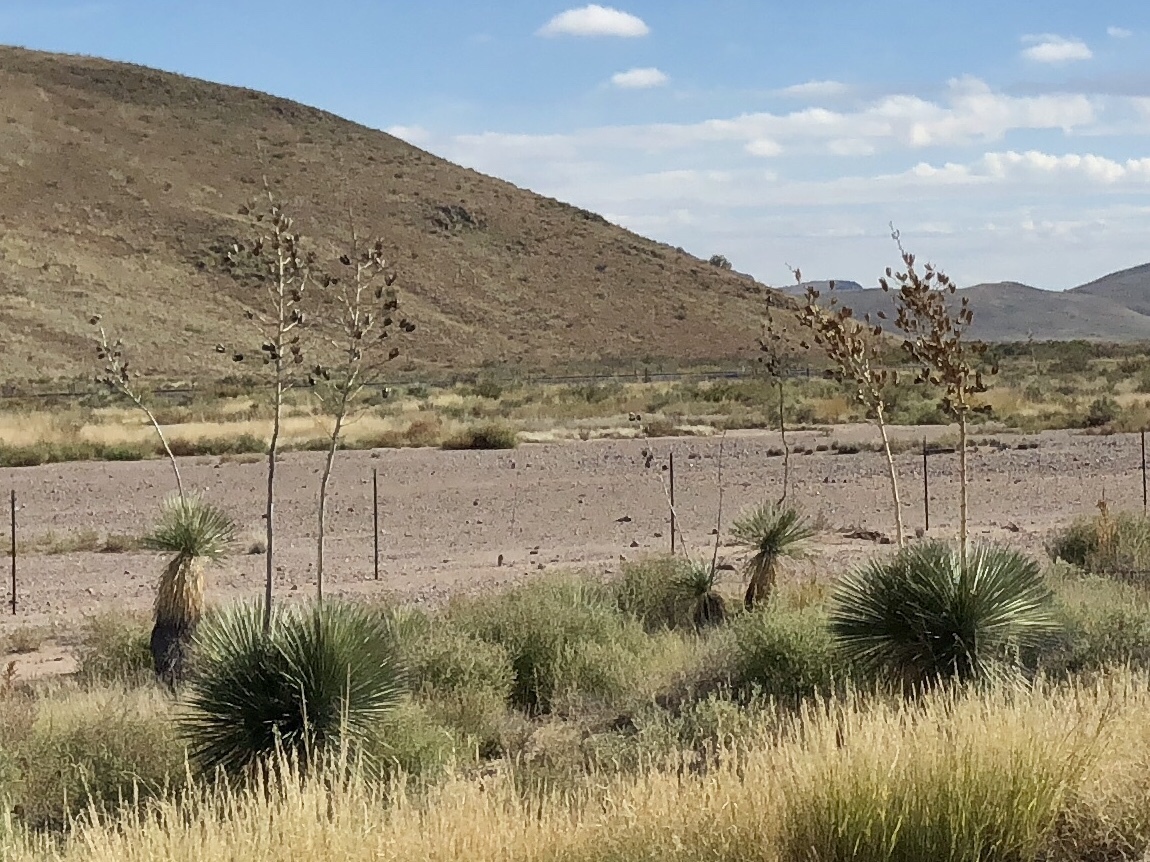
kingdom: Plantae
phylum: Tracheophyta
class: Liliopsida
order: Asparagales
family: Asparagaceae
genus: Yucca
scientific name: Yucca elata
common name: Palmella
